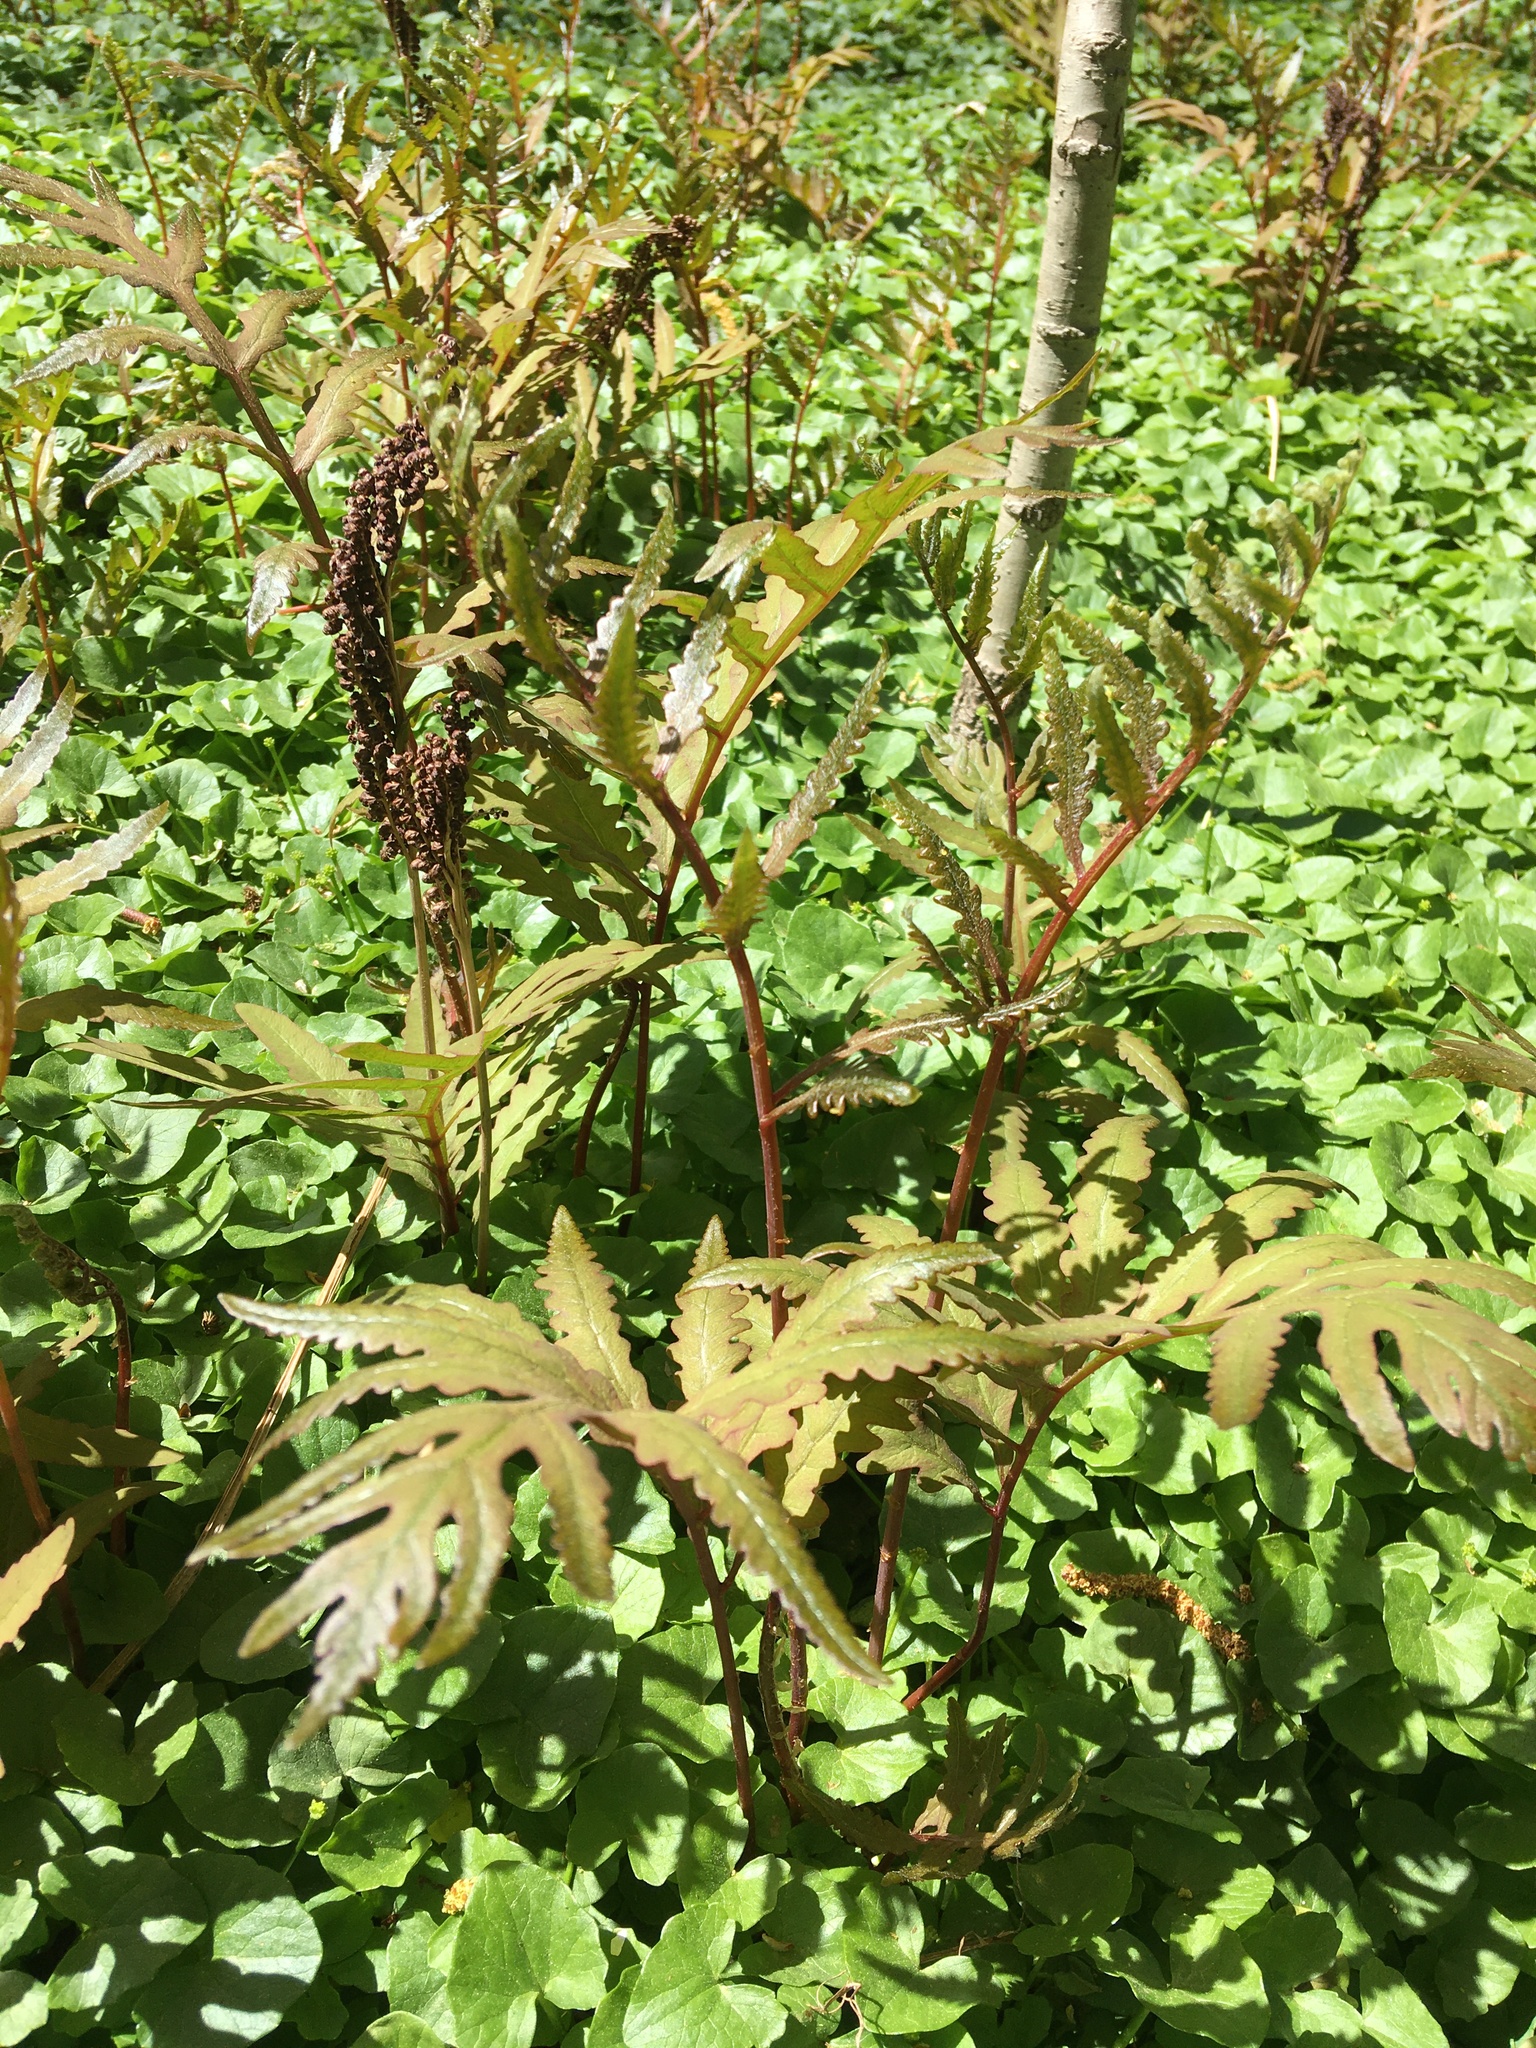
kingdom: Plantae
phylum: Tracheophyta
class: Polypodiopsida
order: Polypodiales
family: Onocleaceae
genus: Onoclea
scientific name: Onoclea sensibilis
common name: Sensitive fern
